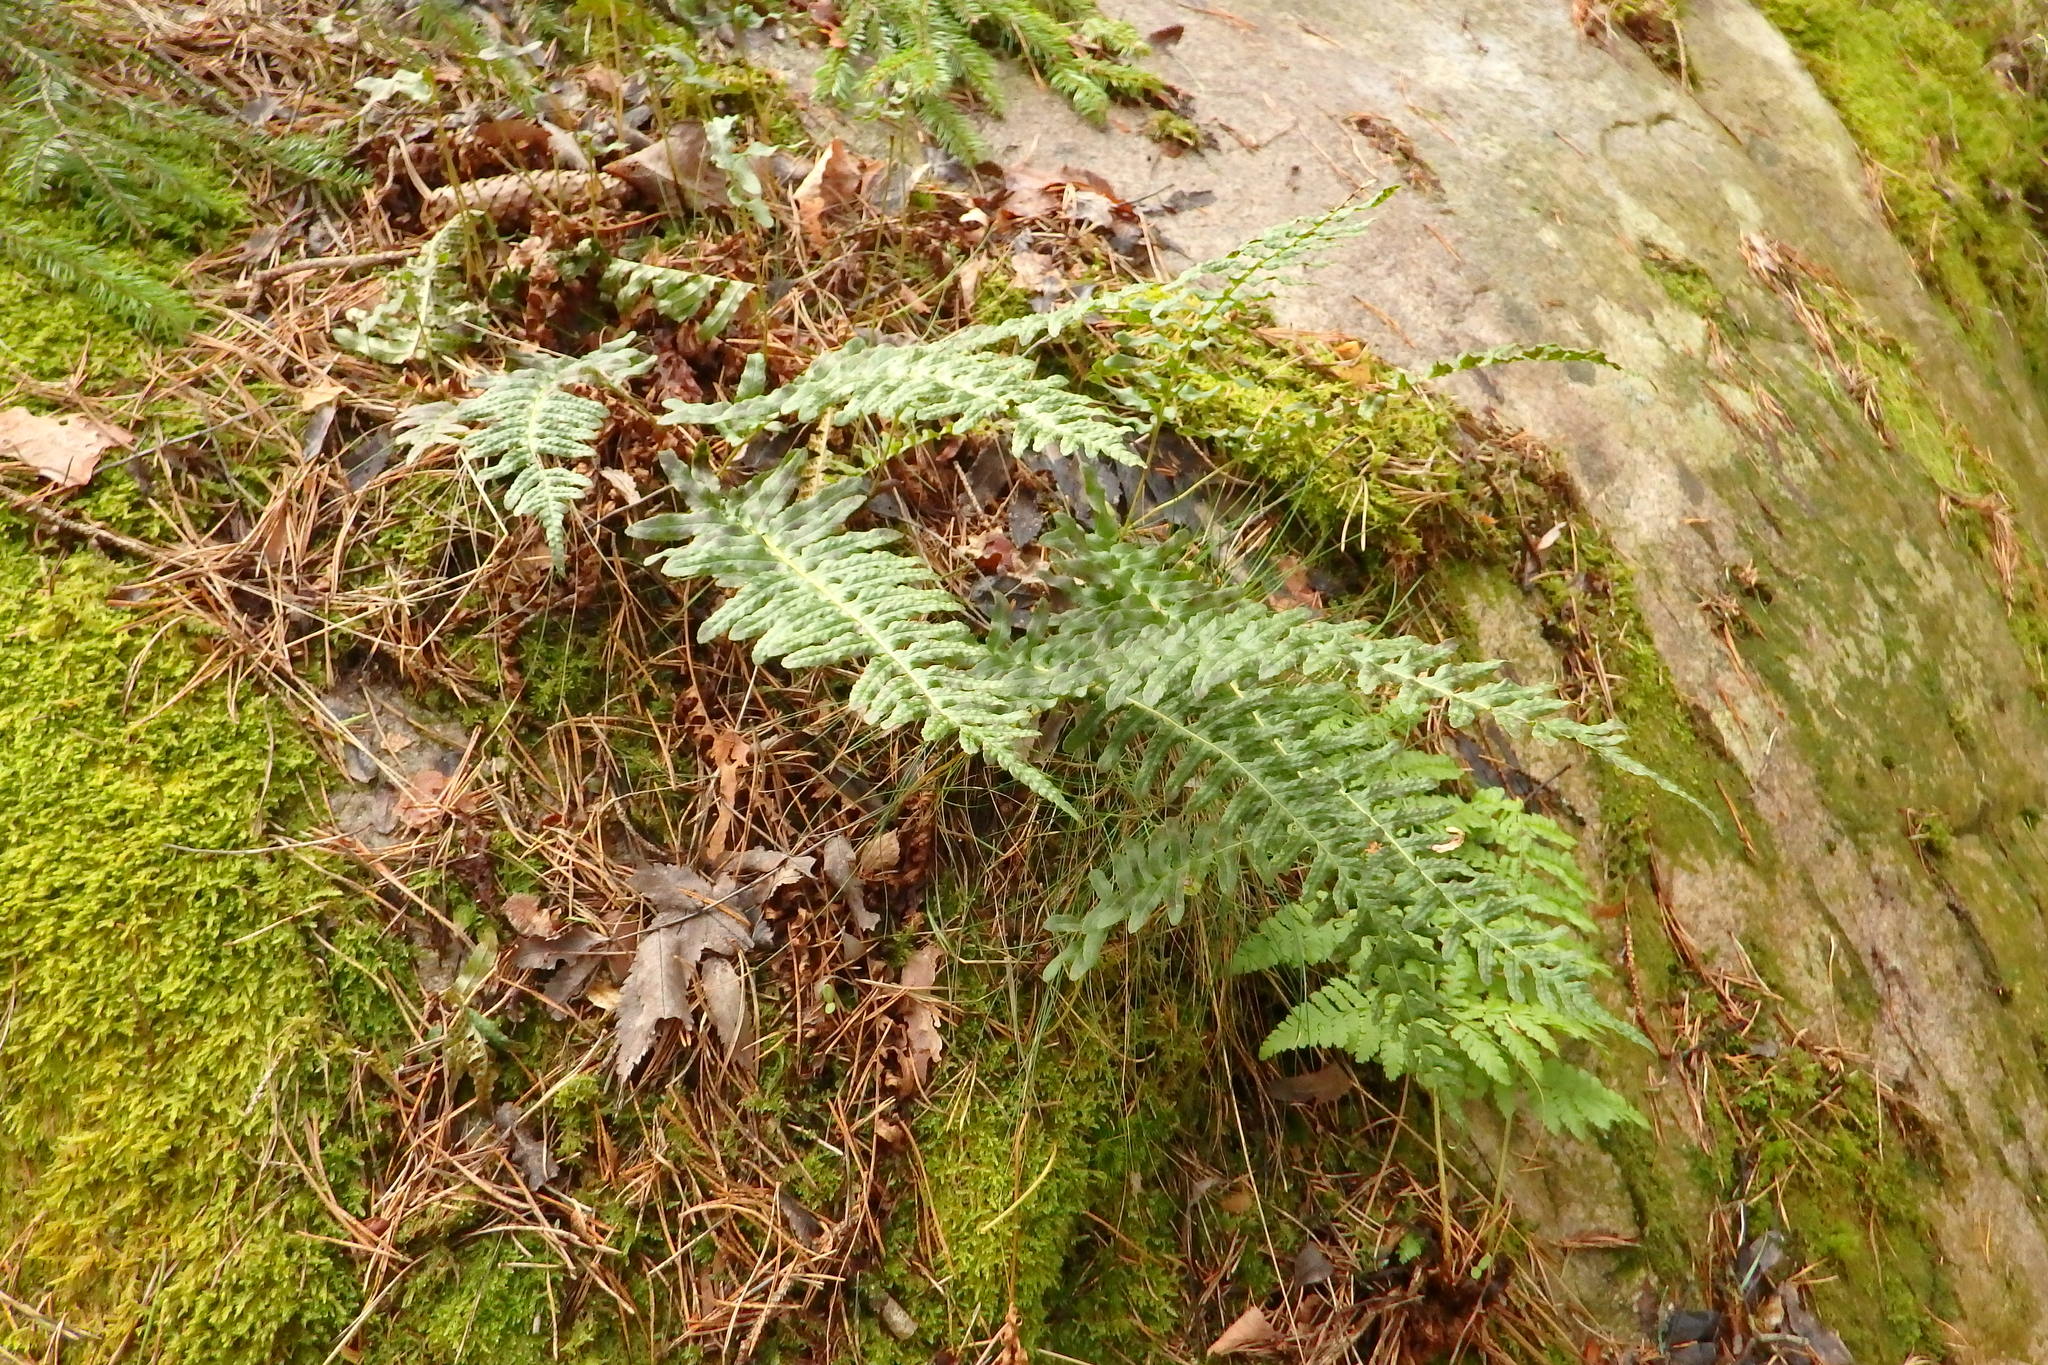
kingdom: Plantae
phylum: Tracheophyta
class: Polypodiopsida
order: Polypodiales
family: Polypodiaceae
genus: Polypodium
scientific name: Polypodium vulgare
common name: Common polypody
